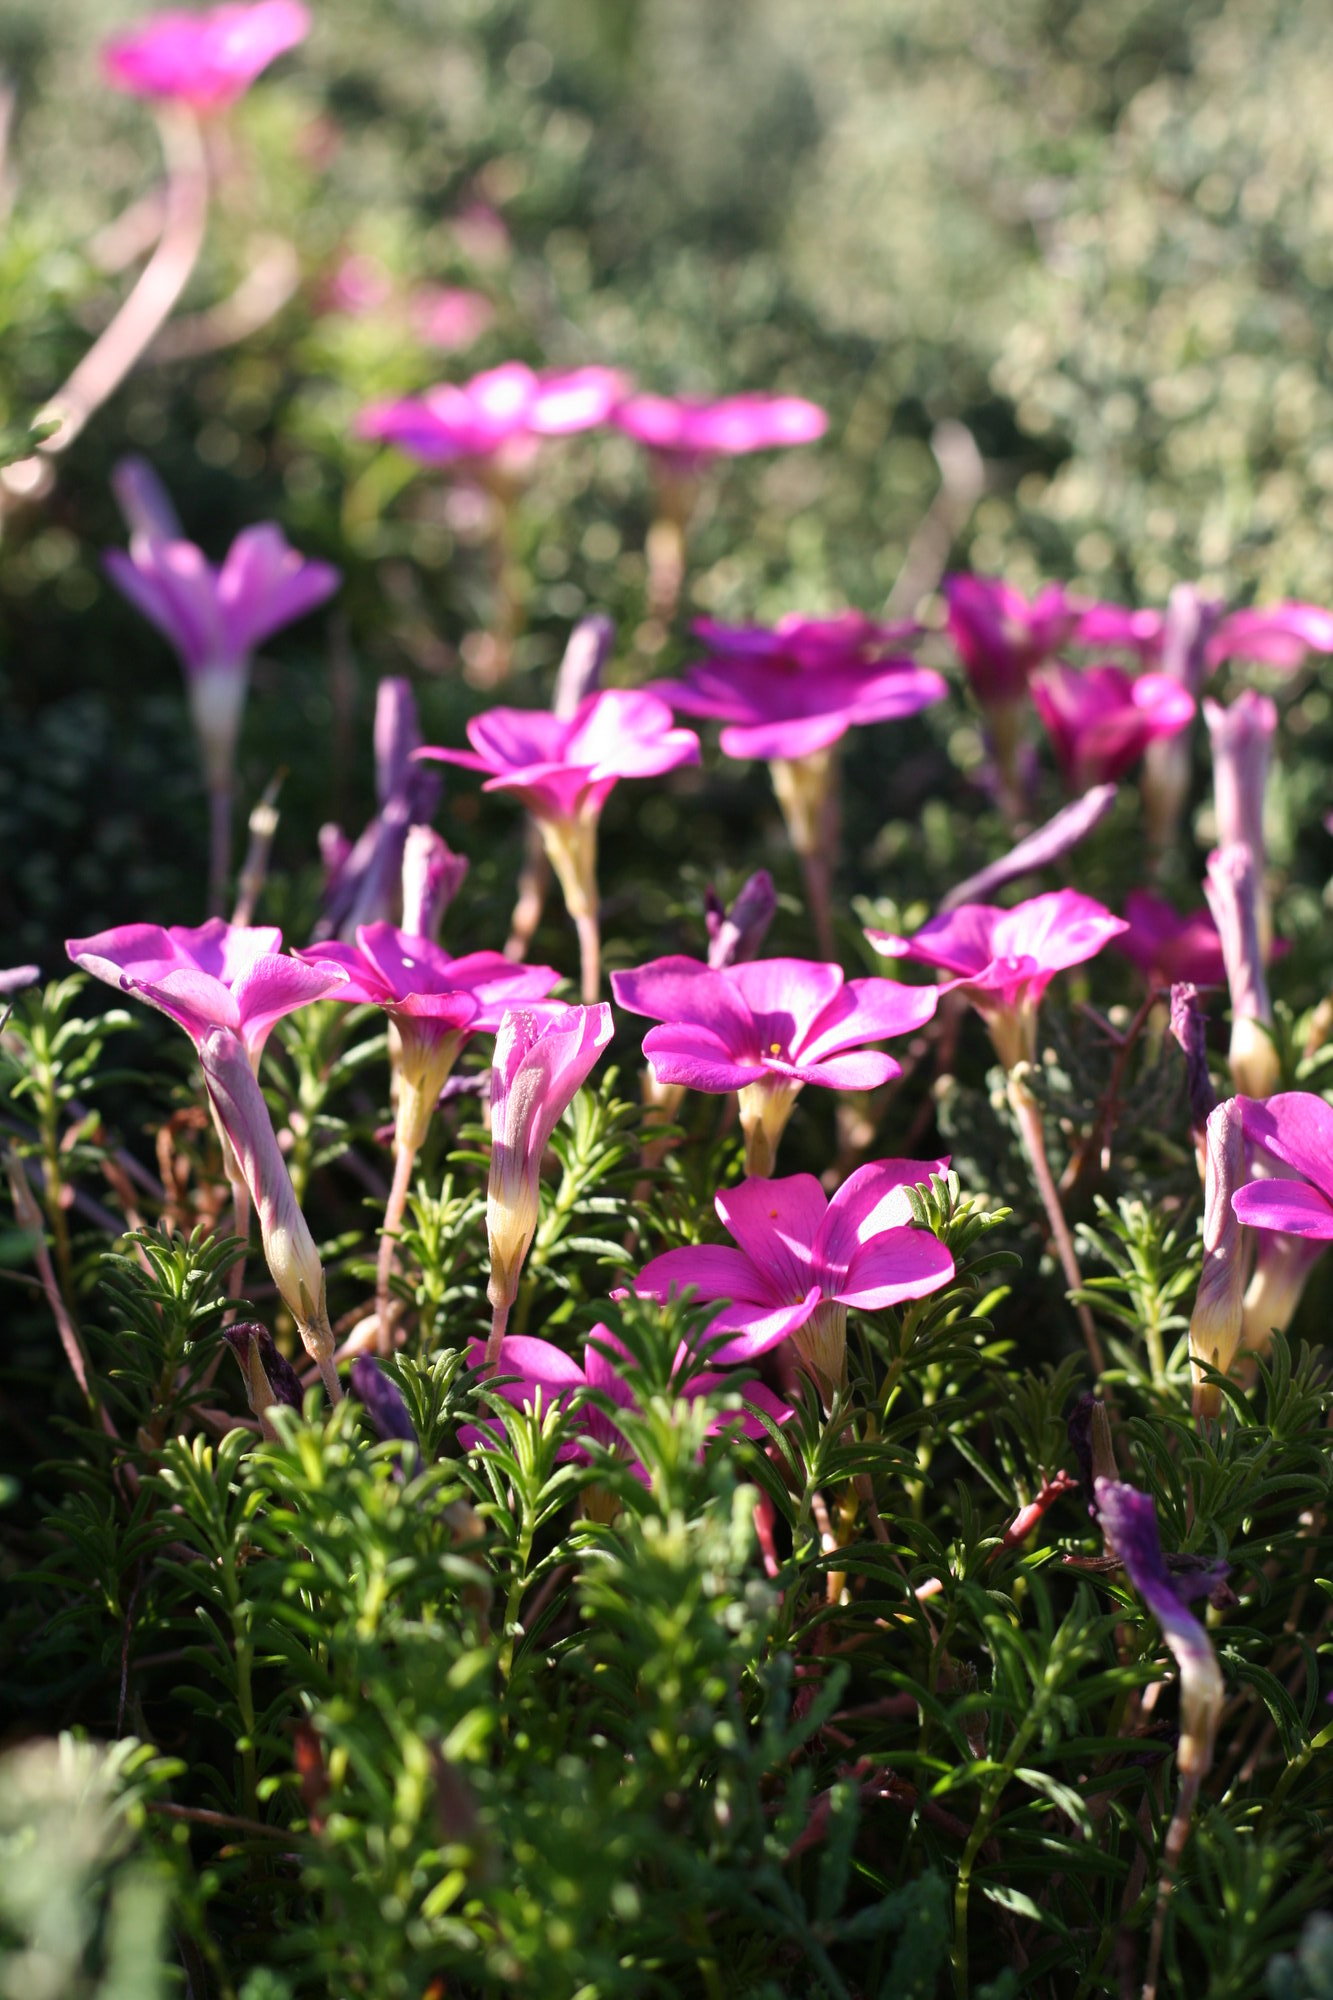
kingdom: Plantae
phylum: Tracheophyta
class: Magnoliopsida
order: Oxalidales
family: Oxalidaceae
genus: Oxalis
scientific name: Oxalis hirta
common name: Tropical woodsorrel
